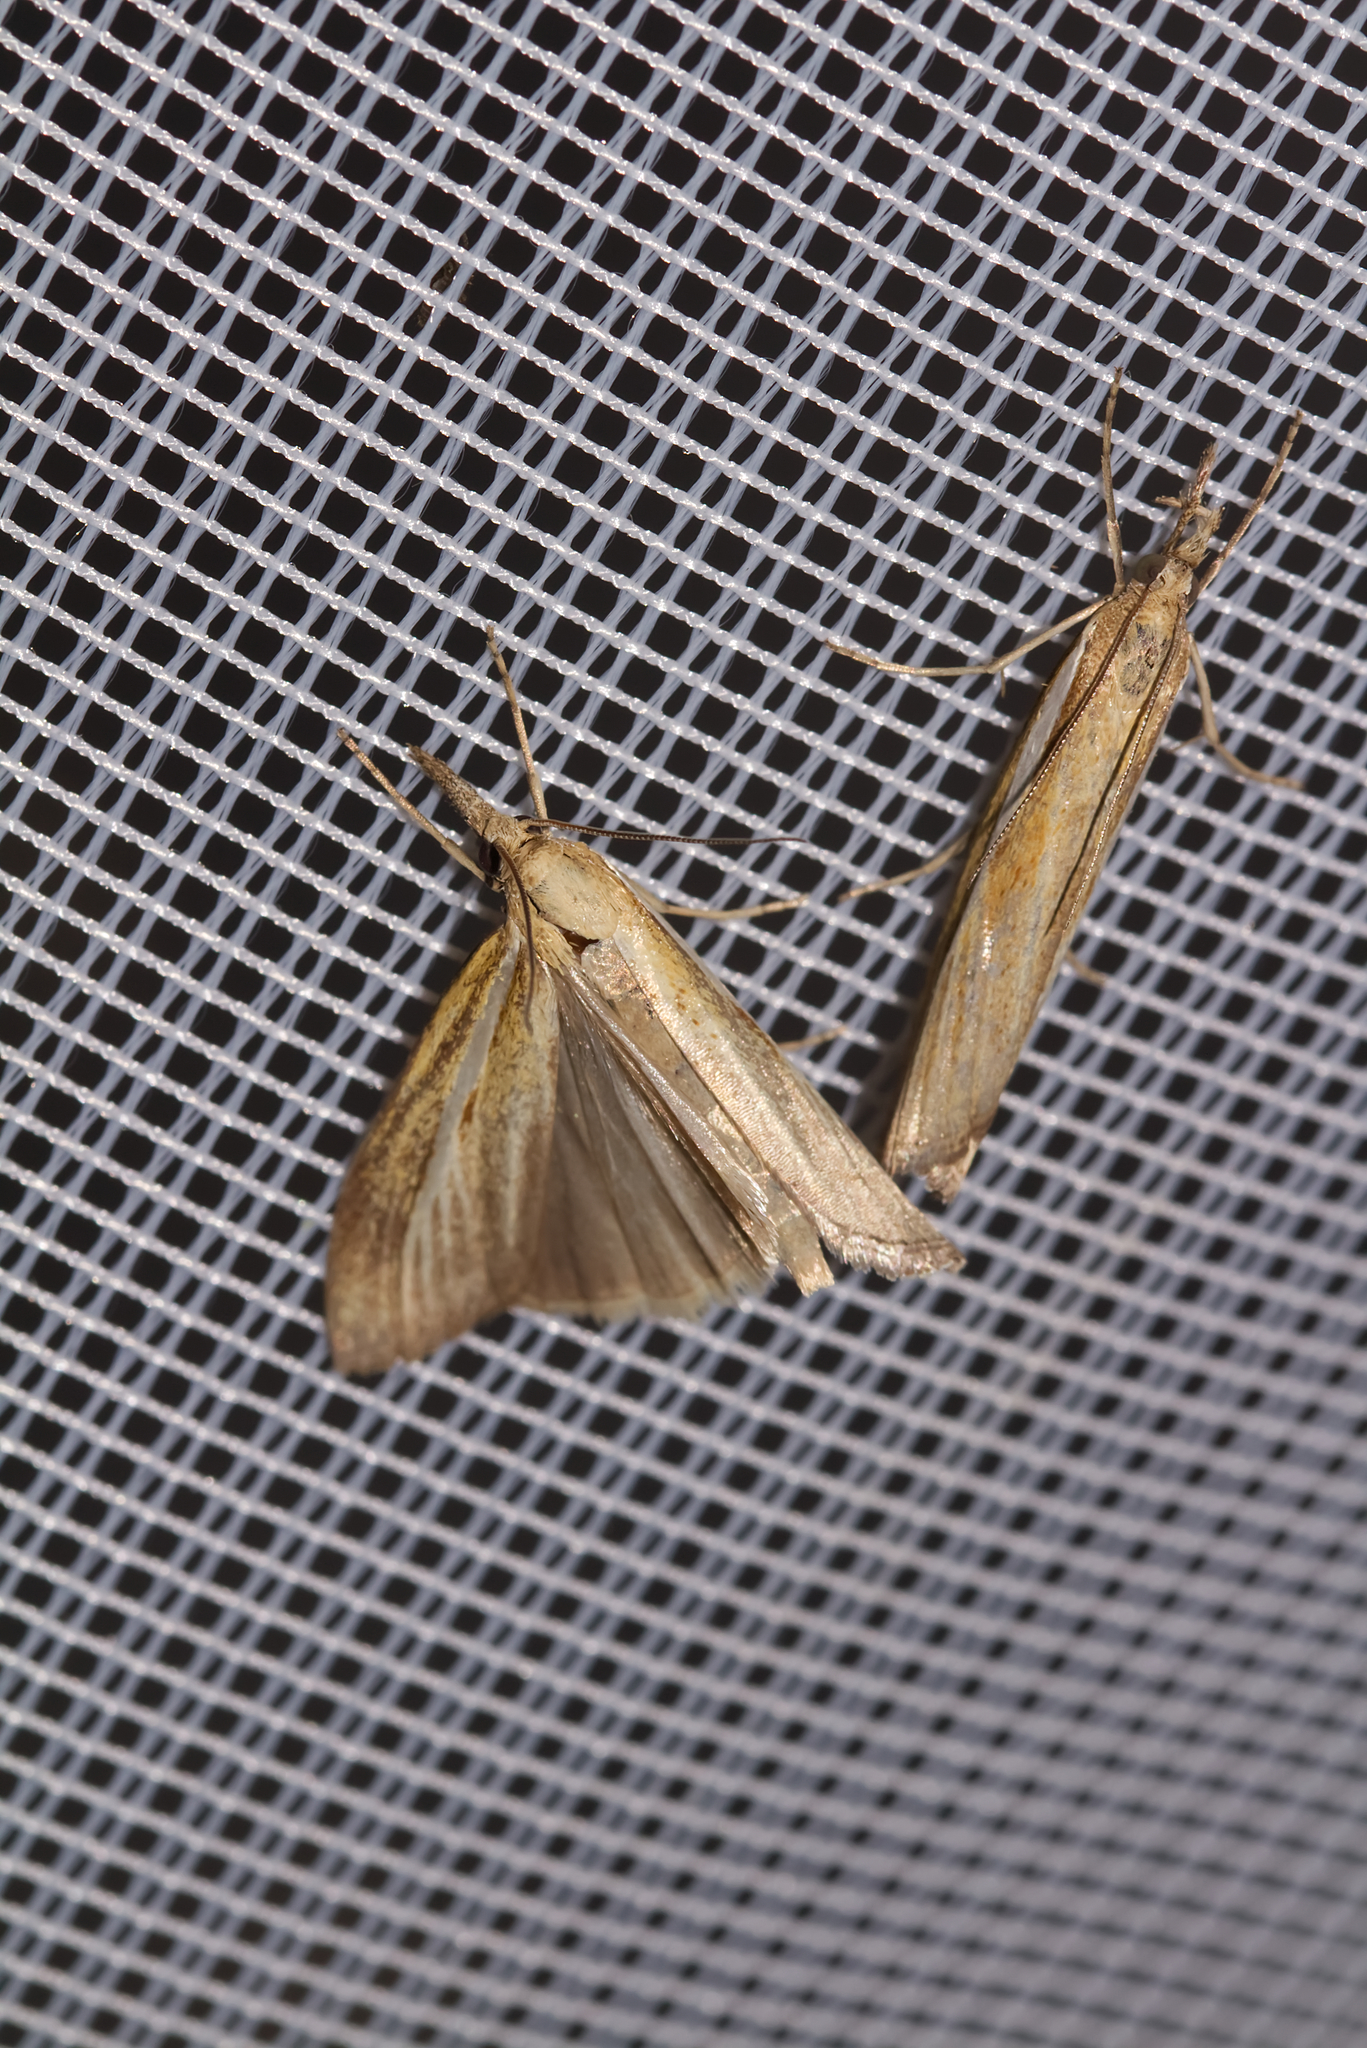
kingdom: Animalia
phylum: Arthropoda
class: Insecta
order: Lepidoptera
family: Crambidae
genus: Agriphila
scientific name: Agriphila tristellus
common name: Common grass-veneer
